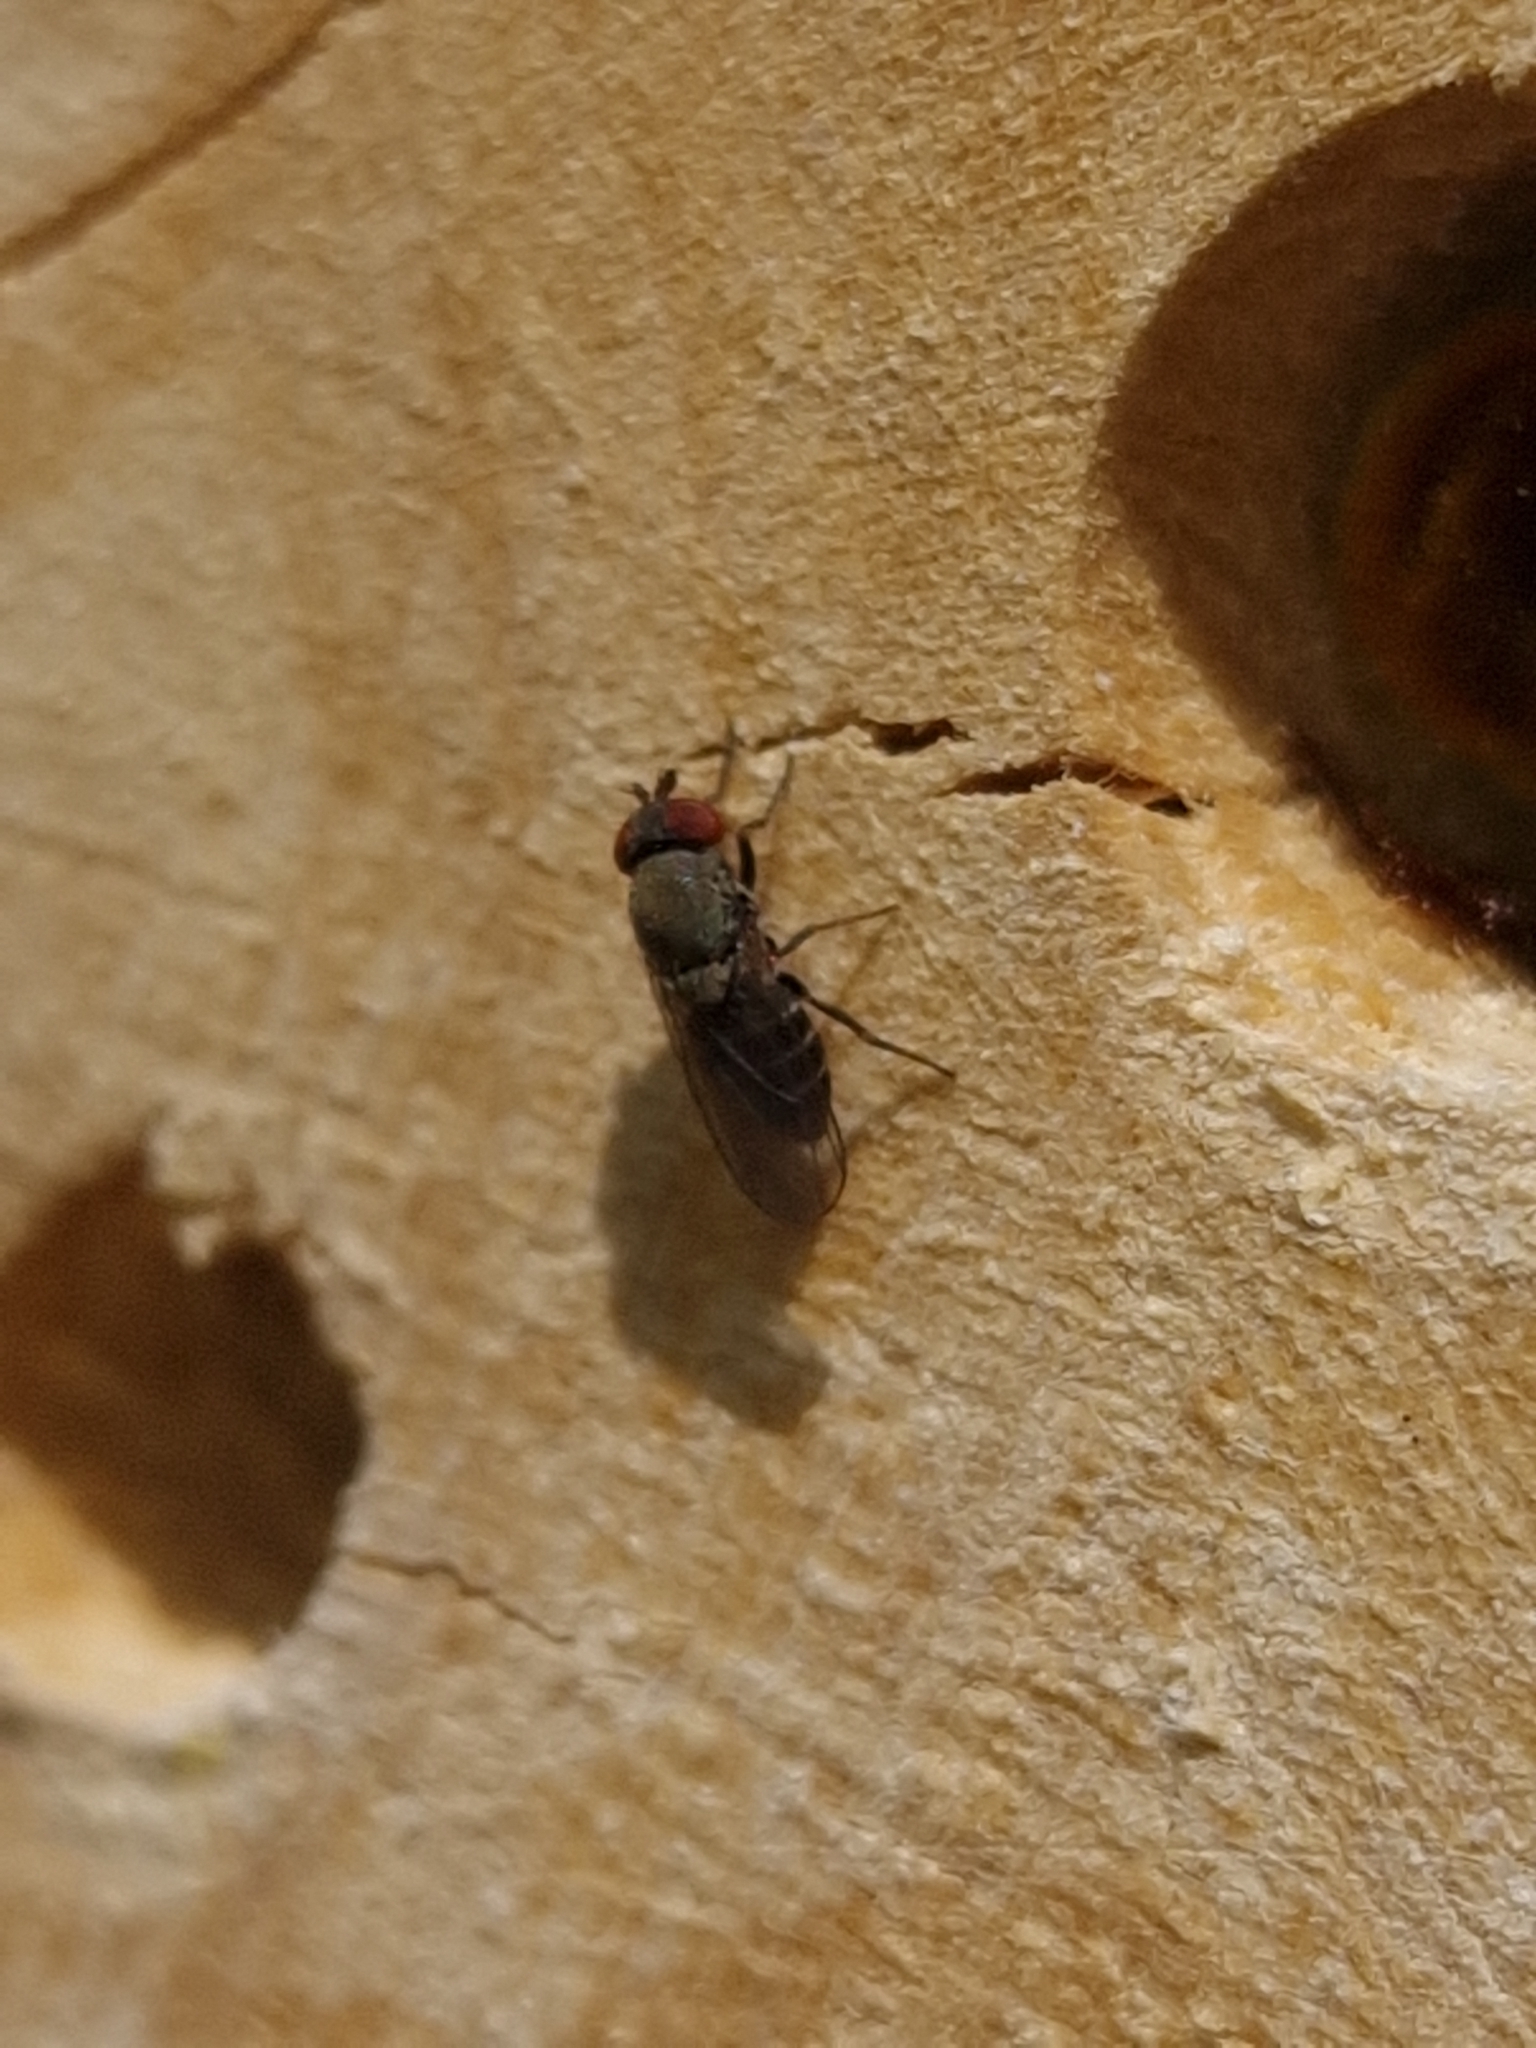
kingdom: Animalia
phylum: Arthropoda
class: Insecta
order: Diptera
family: Drosophilidae
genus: Cacoxenus
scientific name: Cacoxenus indagator
